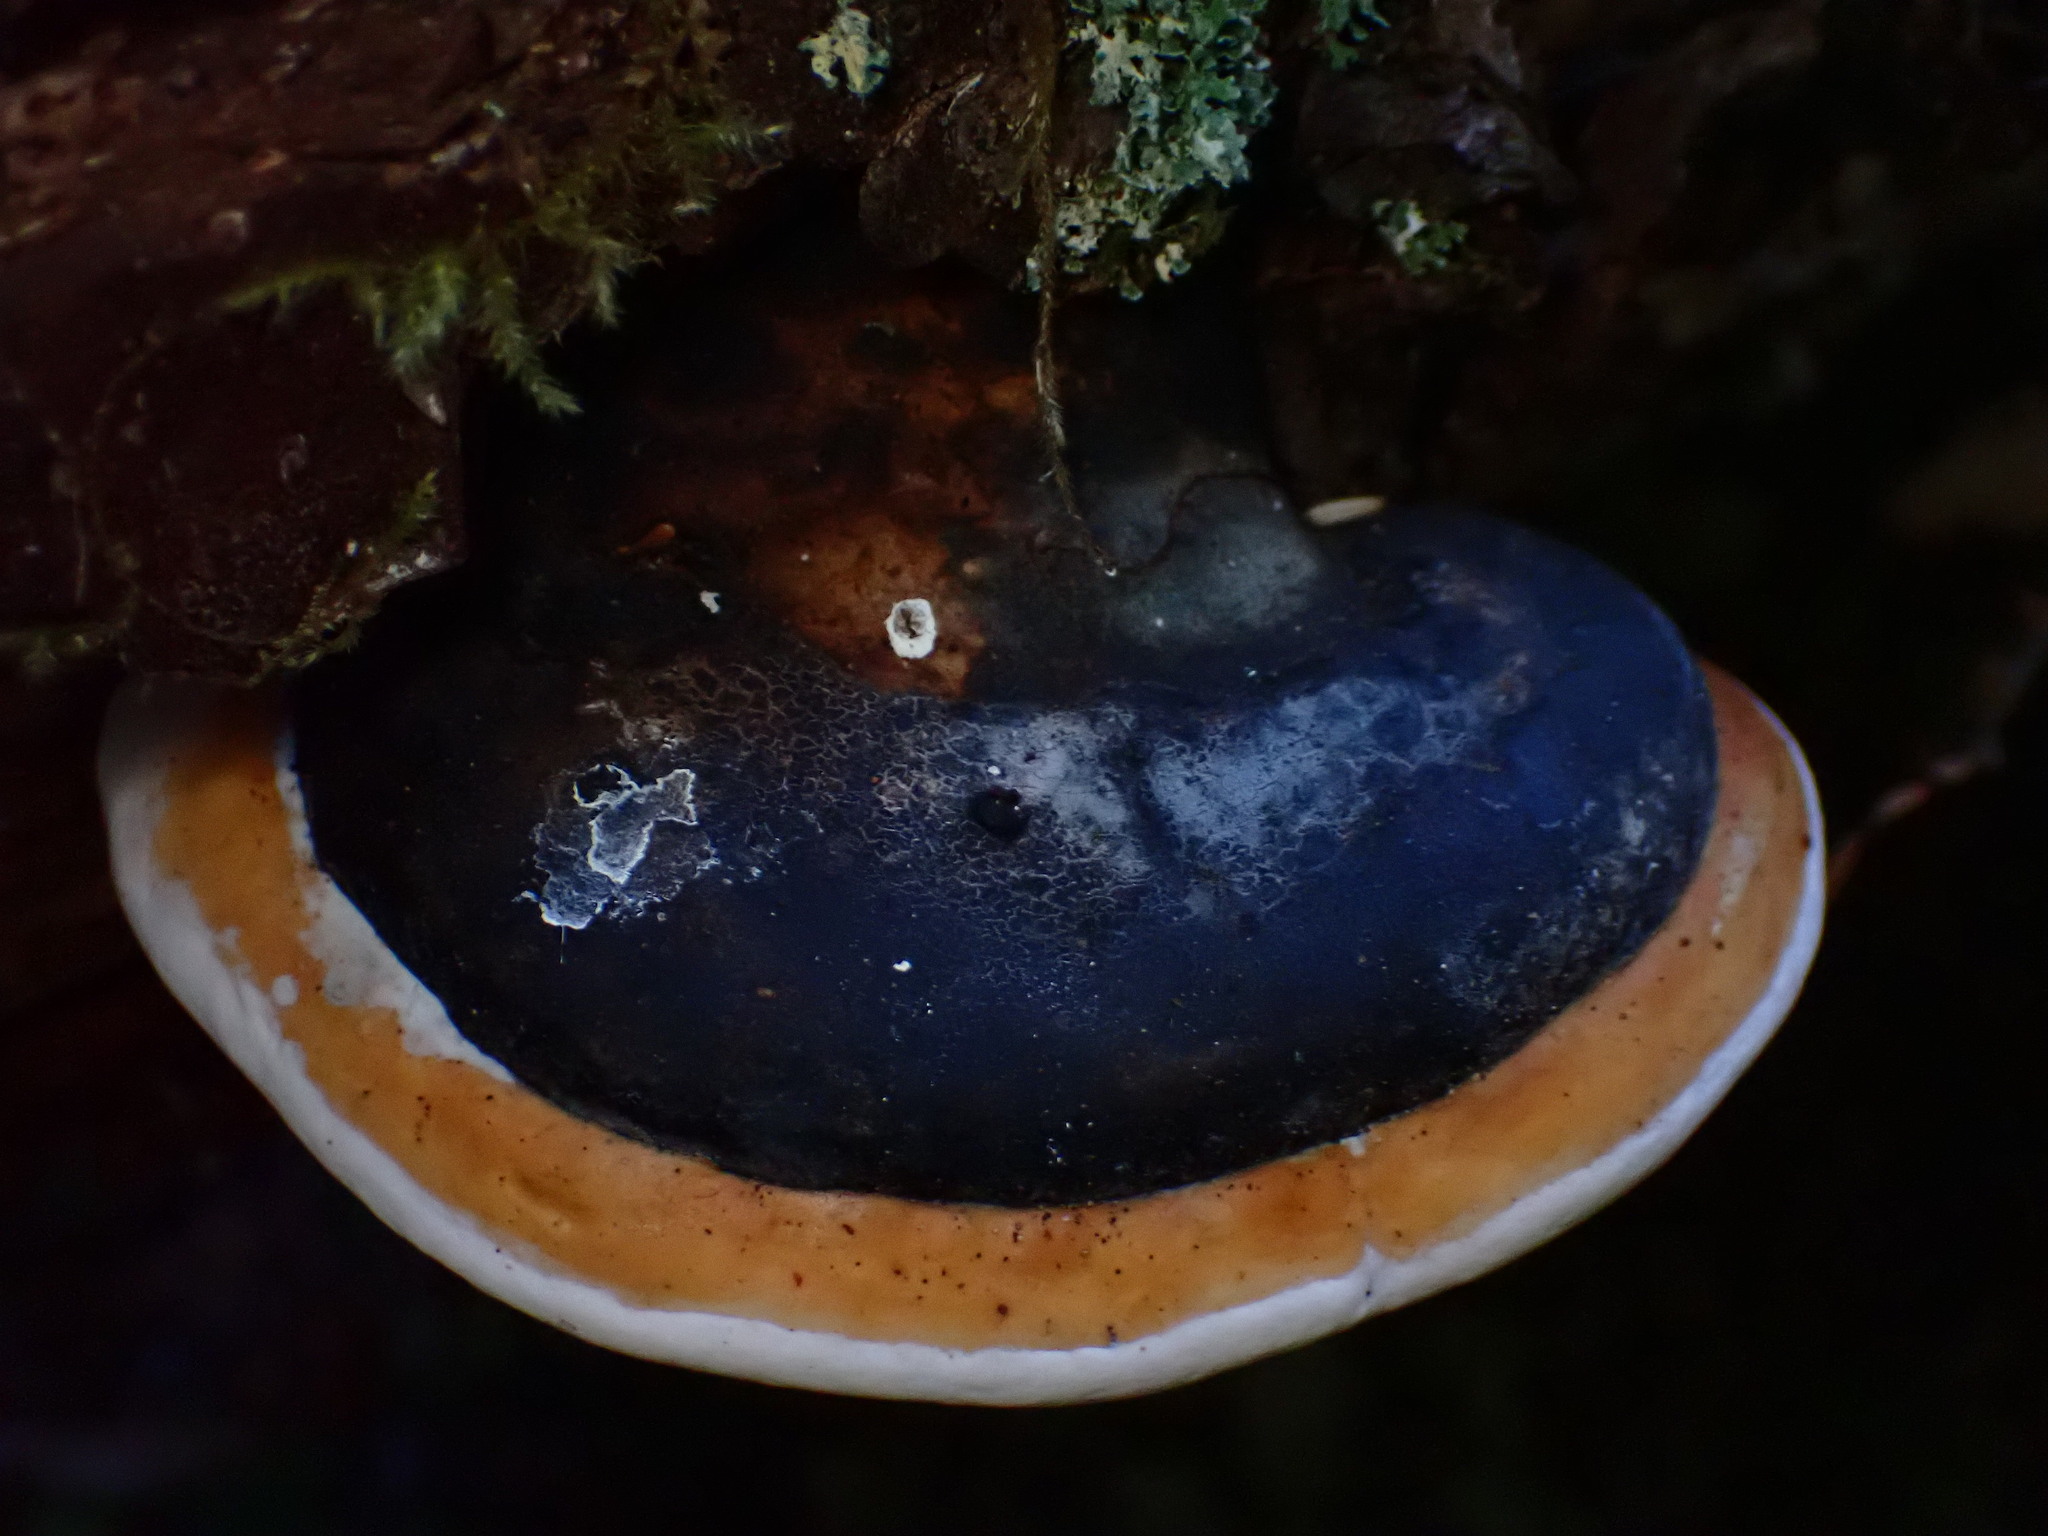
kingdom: Fungi
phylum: Basidiomycota
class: Agaricomycetes
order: Polyporales
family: Fomitopsidaceae
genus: Fomitopsis
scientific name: Fomitopsis mounceae
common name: Northern red belt
